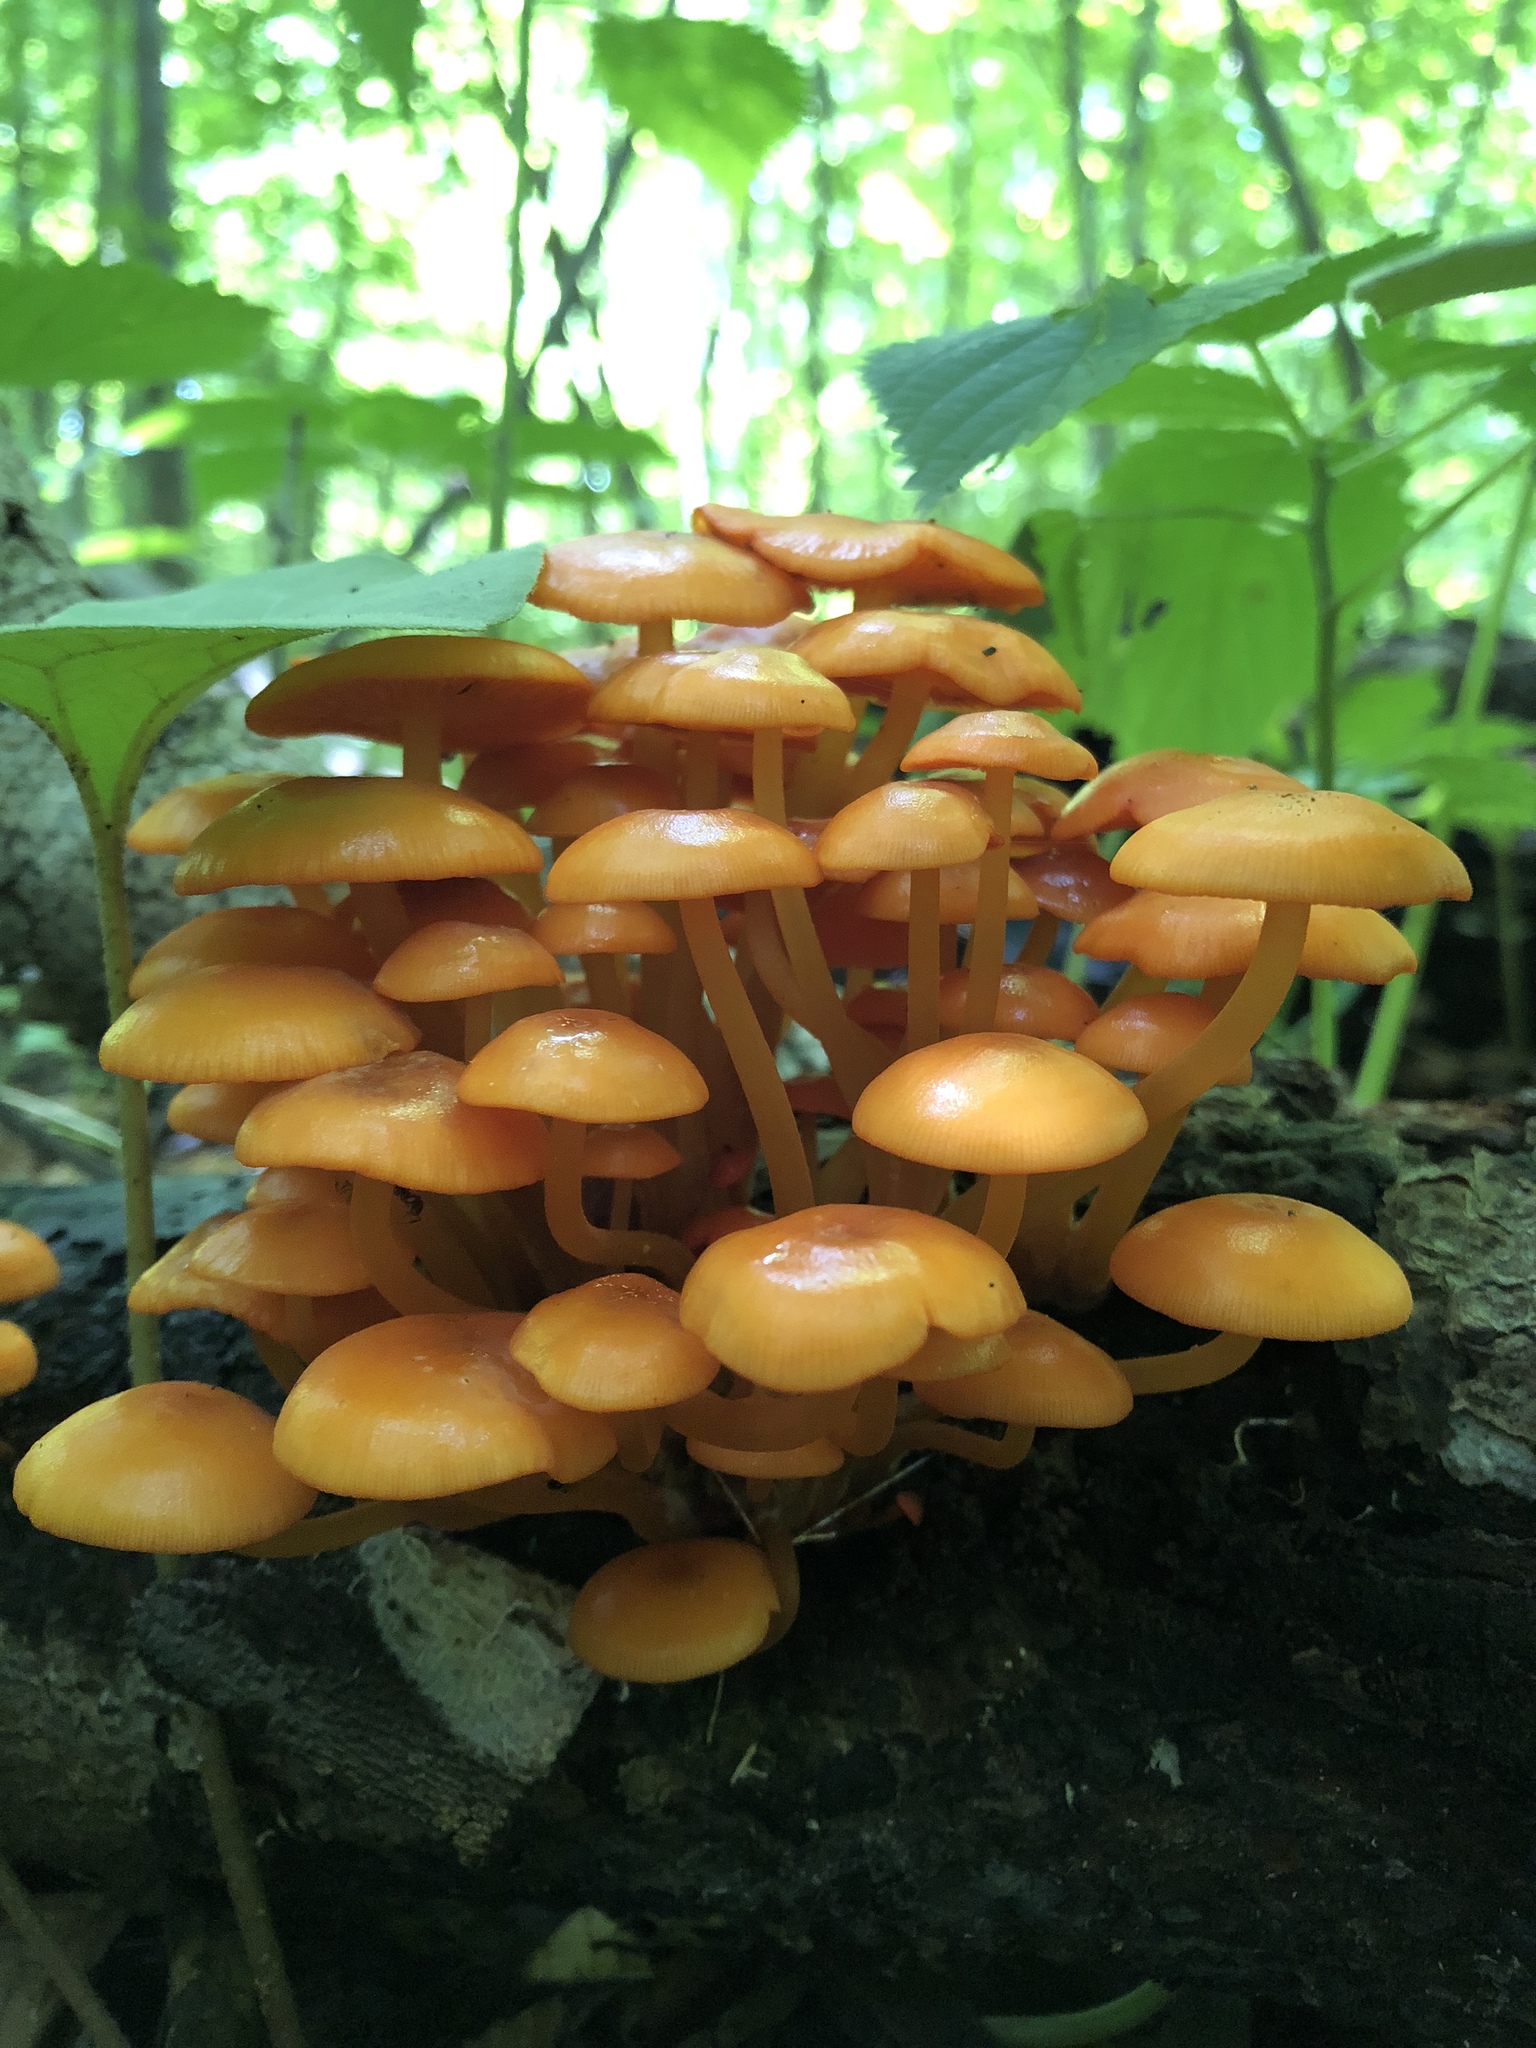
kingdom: Fungi
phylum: Basidiomycota
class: Agaricomycetes
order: Agaricales
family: Mycenaceae
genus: Mycena
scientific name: Mycena leaiana
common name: Orange mycena
